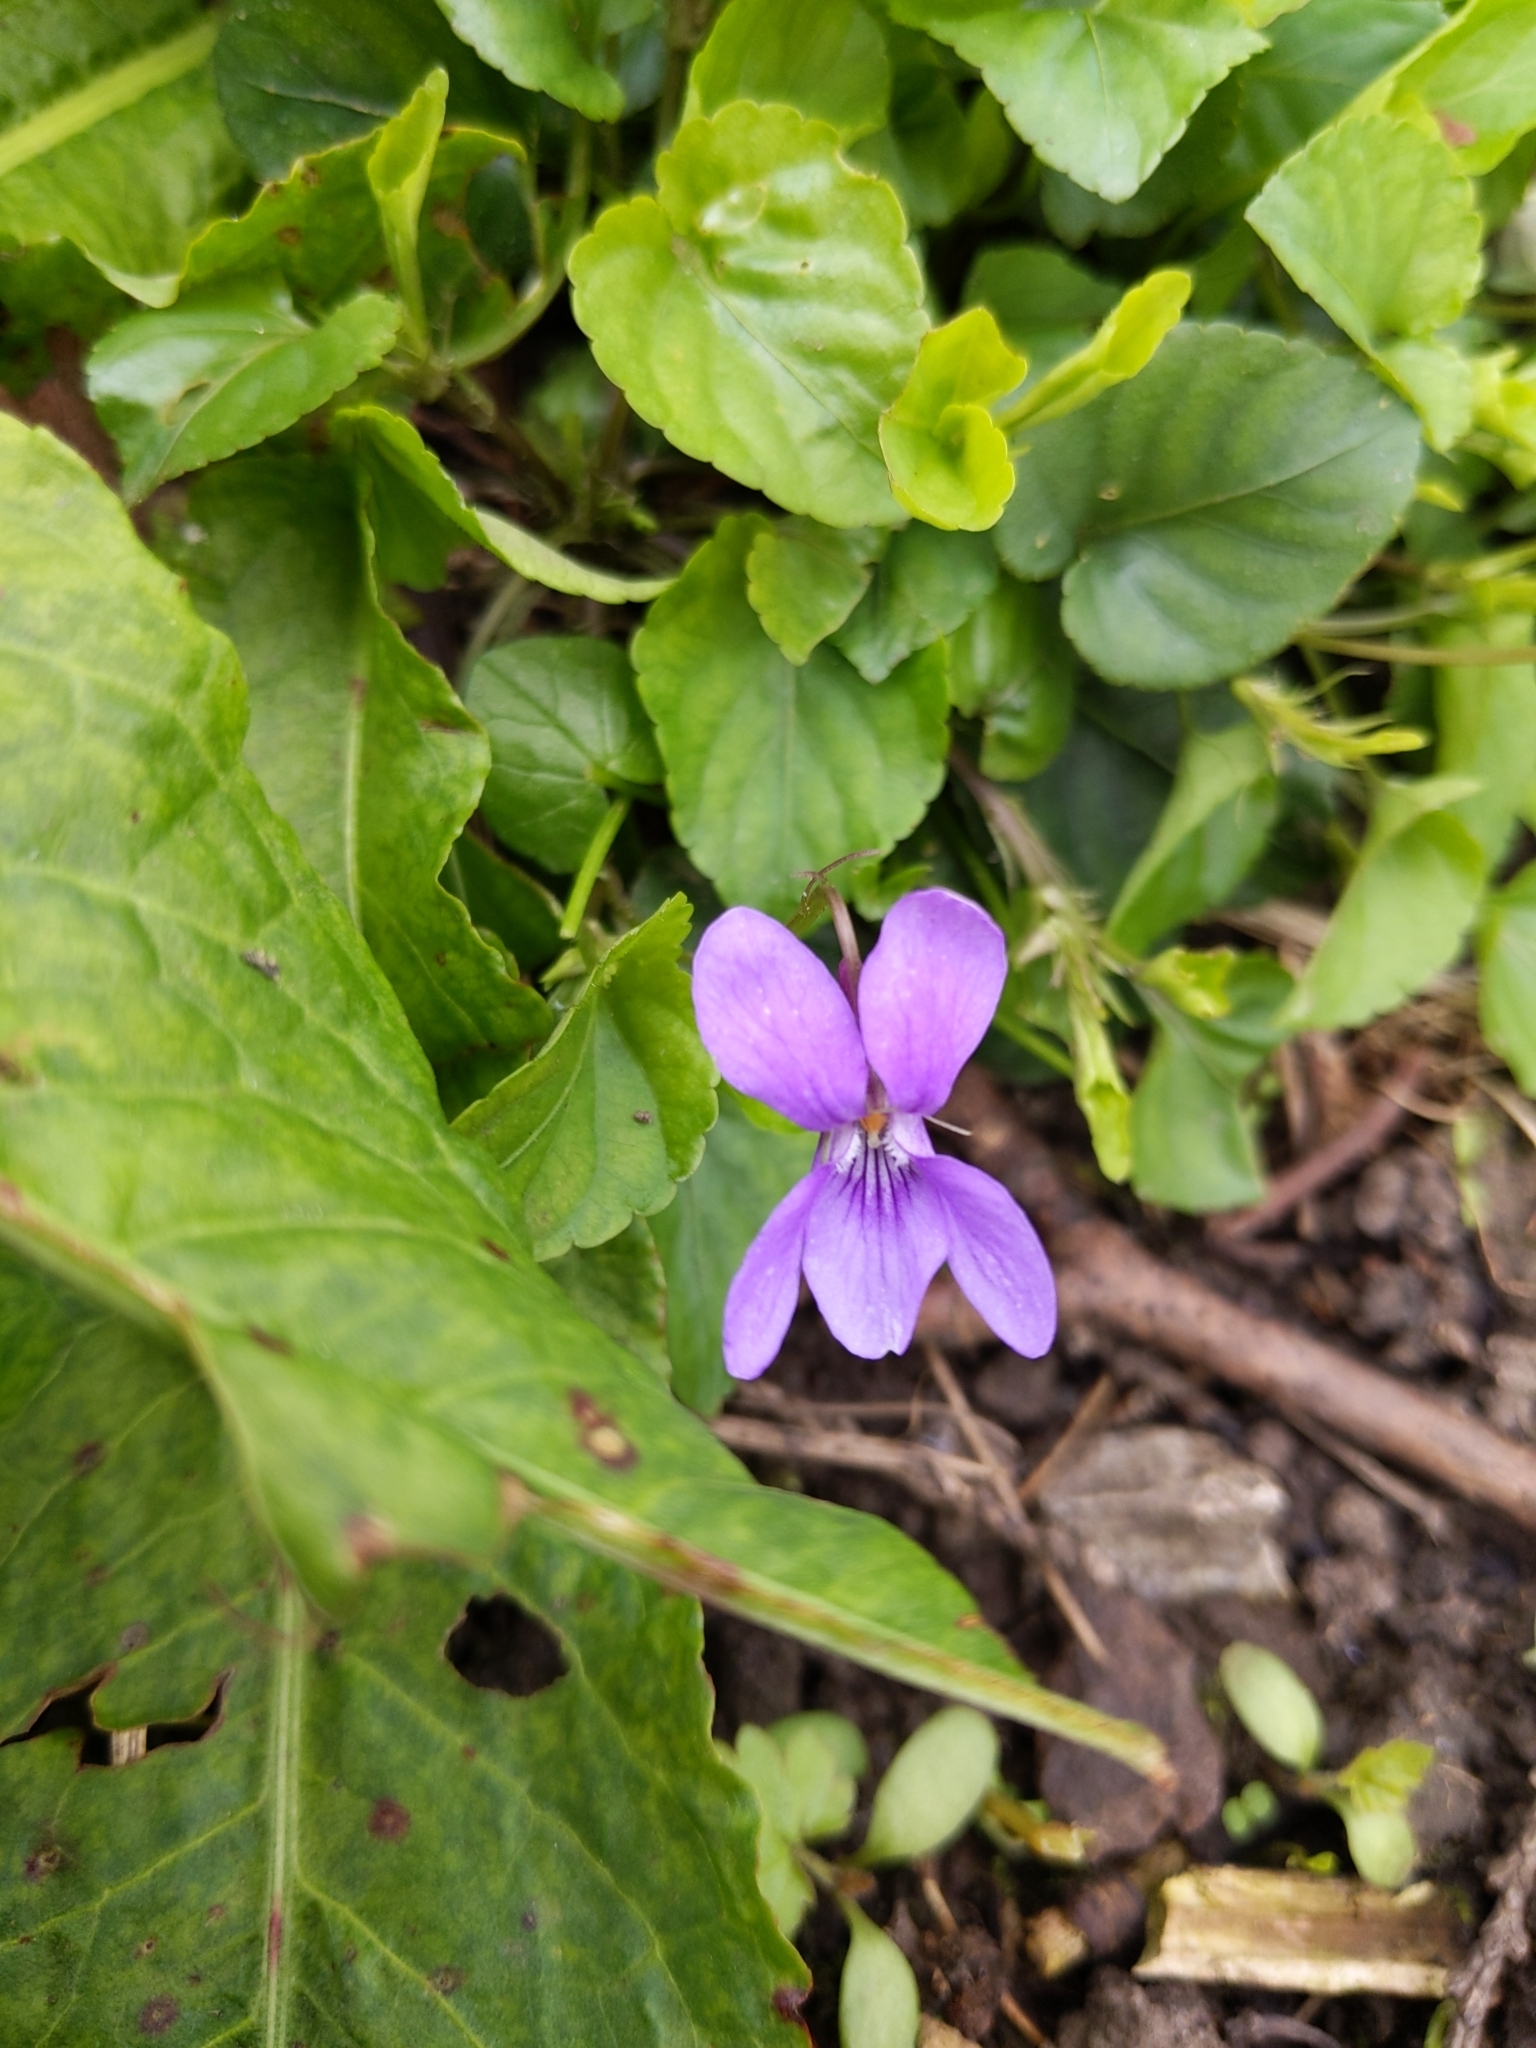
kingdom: Plantae
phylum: Tracheophyta
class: Magnoliopsida
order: Malpighiales
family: Violaceae
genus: Viola
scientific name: Viola reichenbachiana
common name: Early dog-violet
